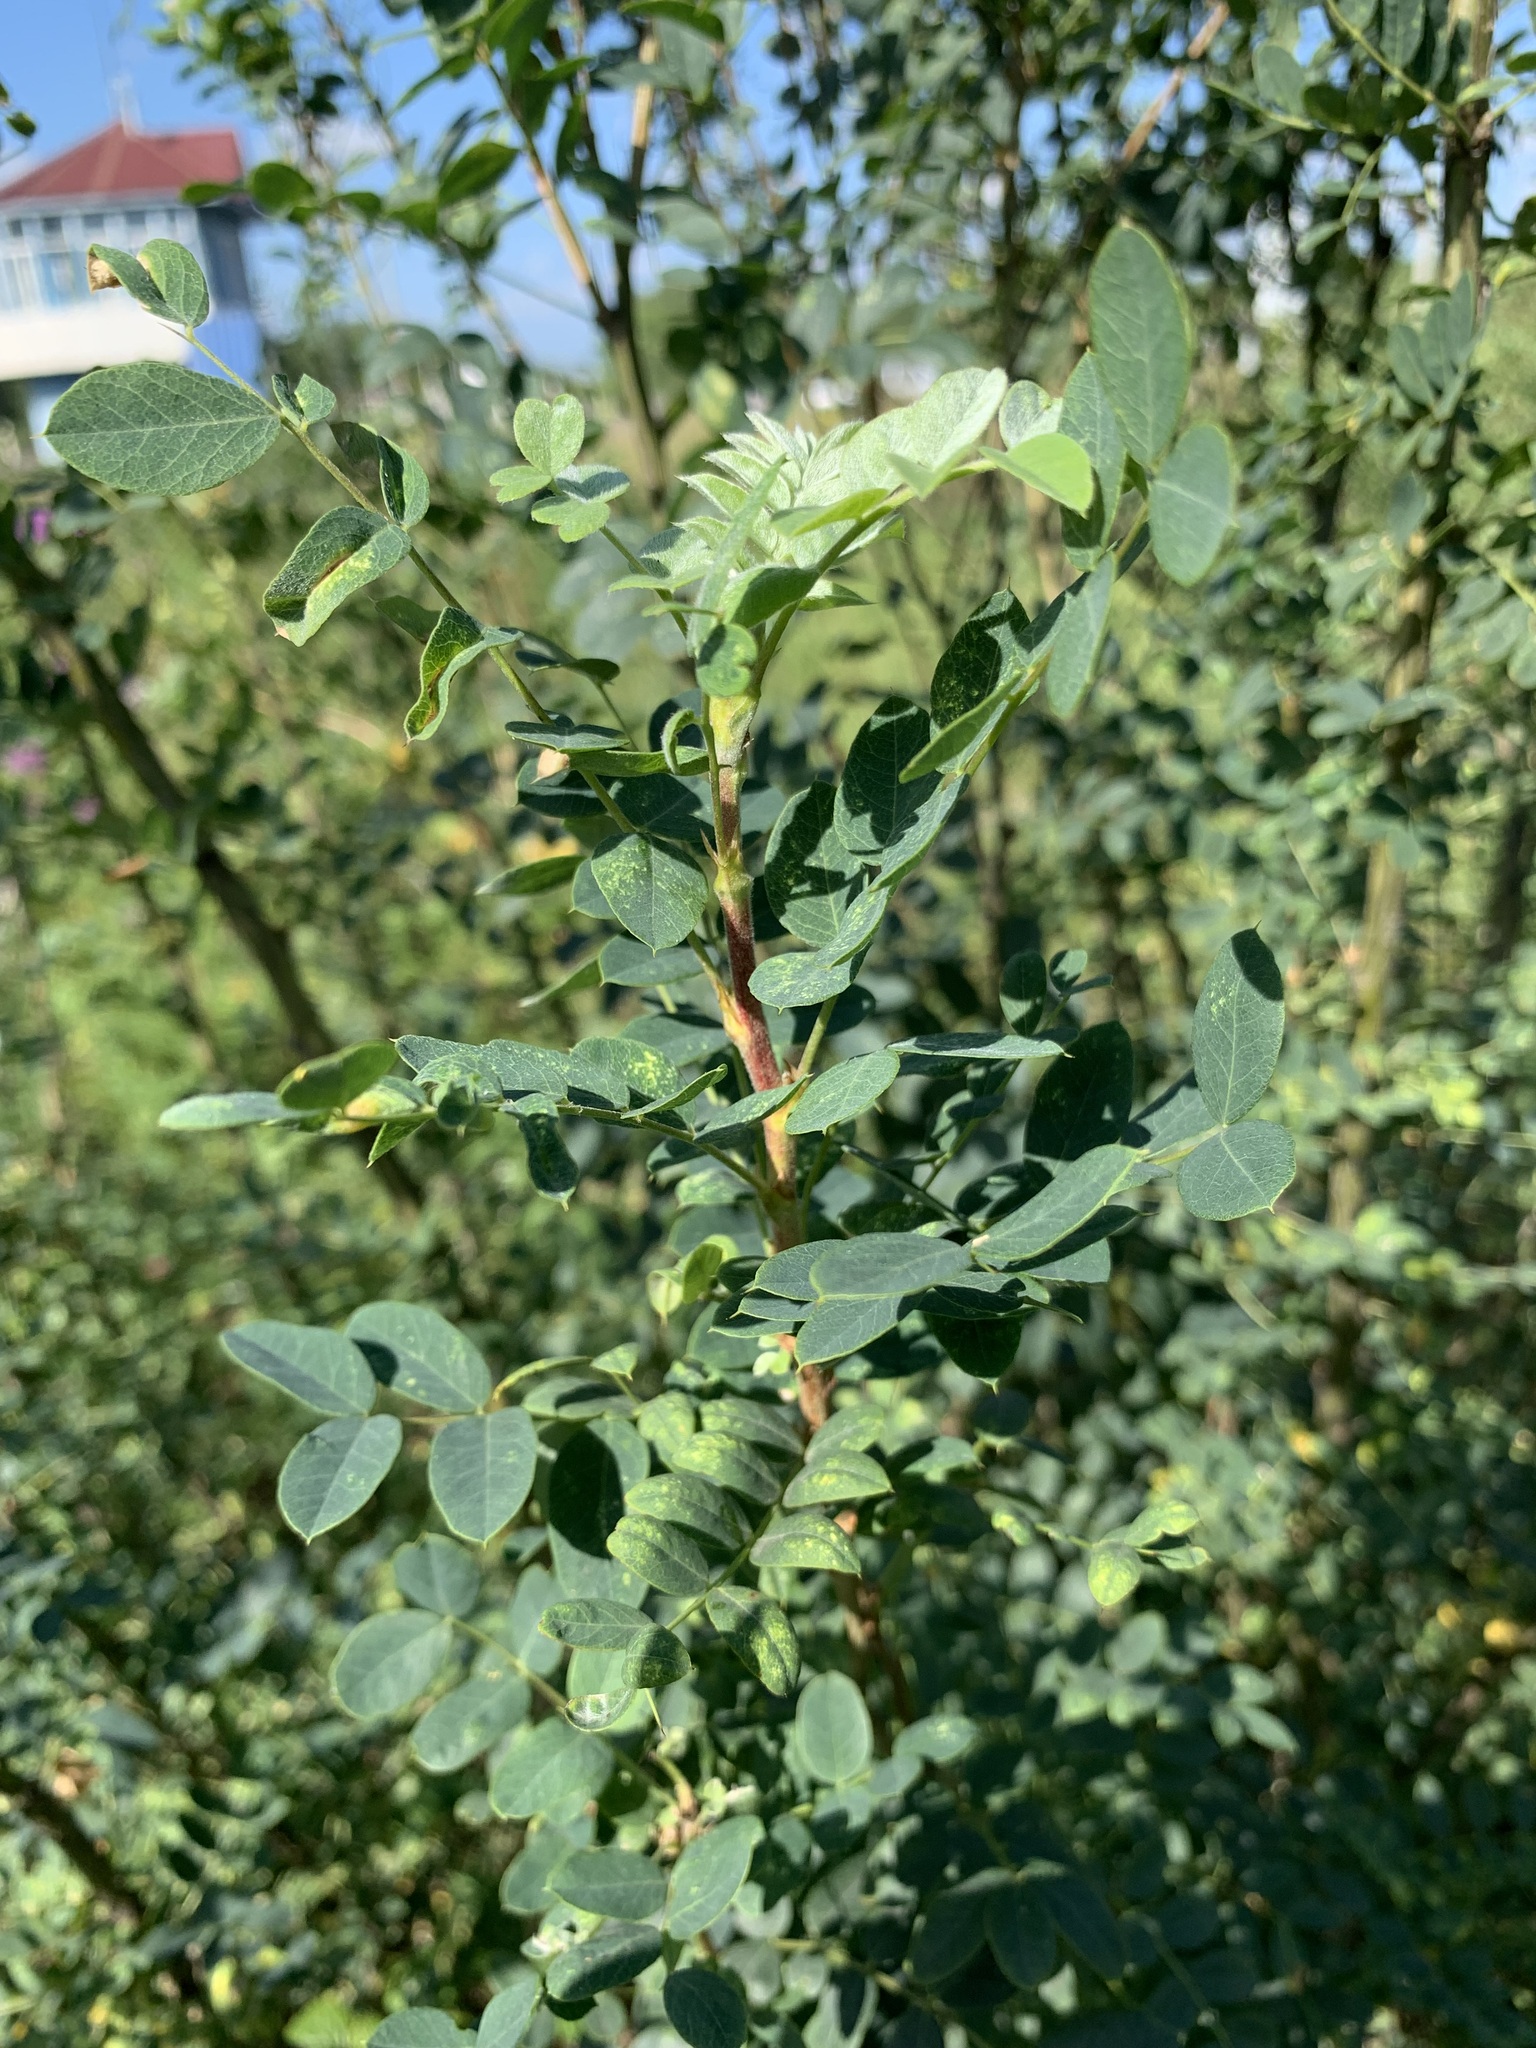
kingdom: Plantae
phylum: Tracheophyta
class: Magnoliopsida
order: Fabales
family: Fabaceae
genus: Caragana
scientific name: Caragana arborescens
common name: Siberian peashrub
